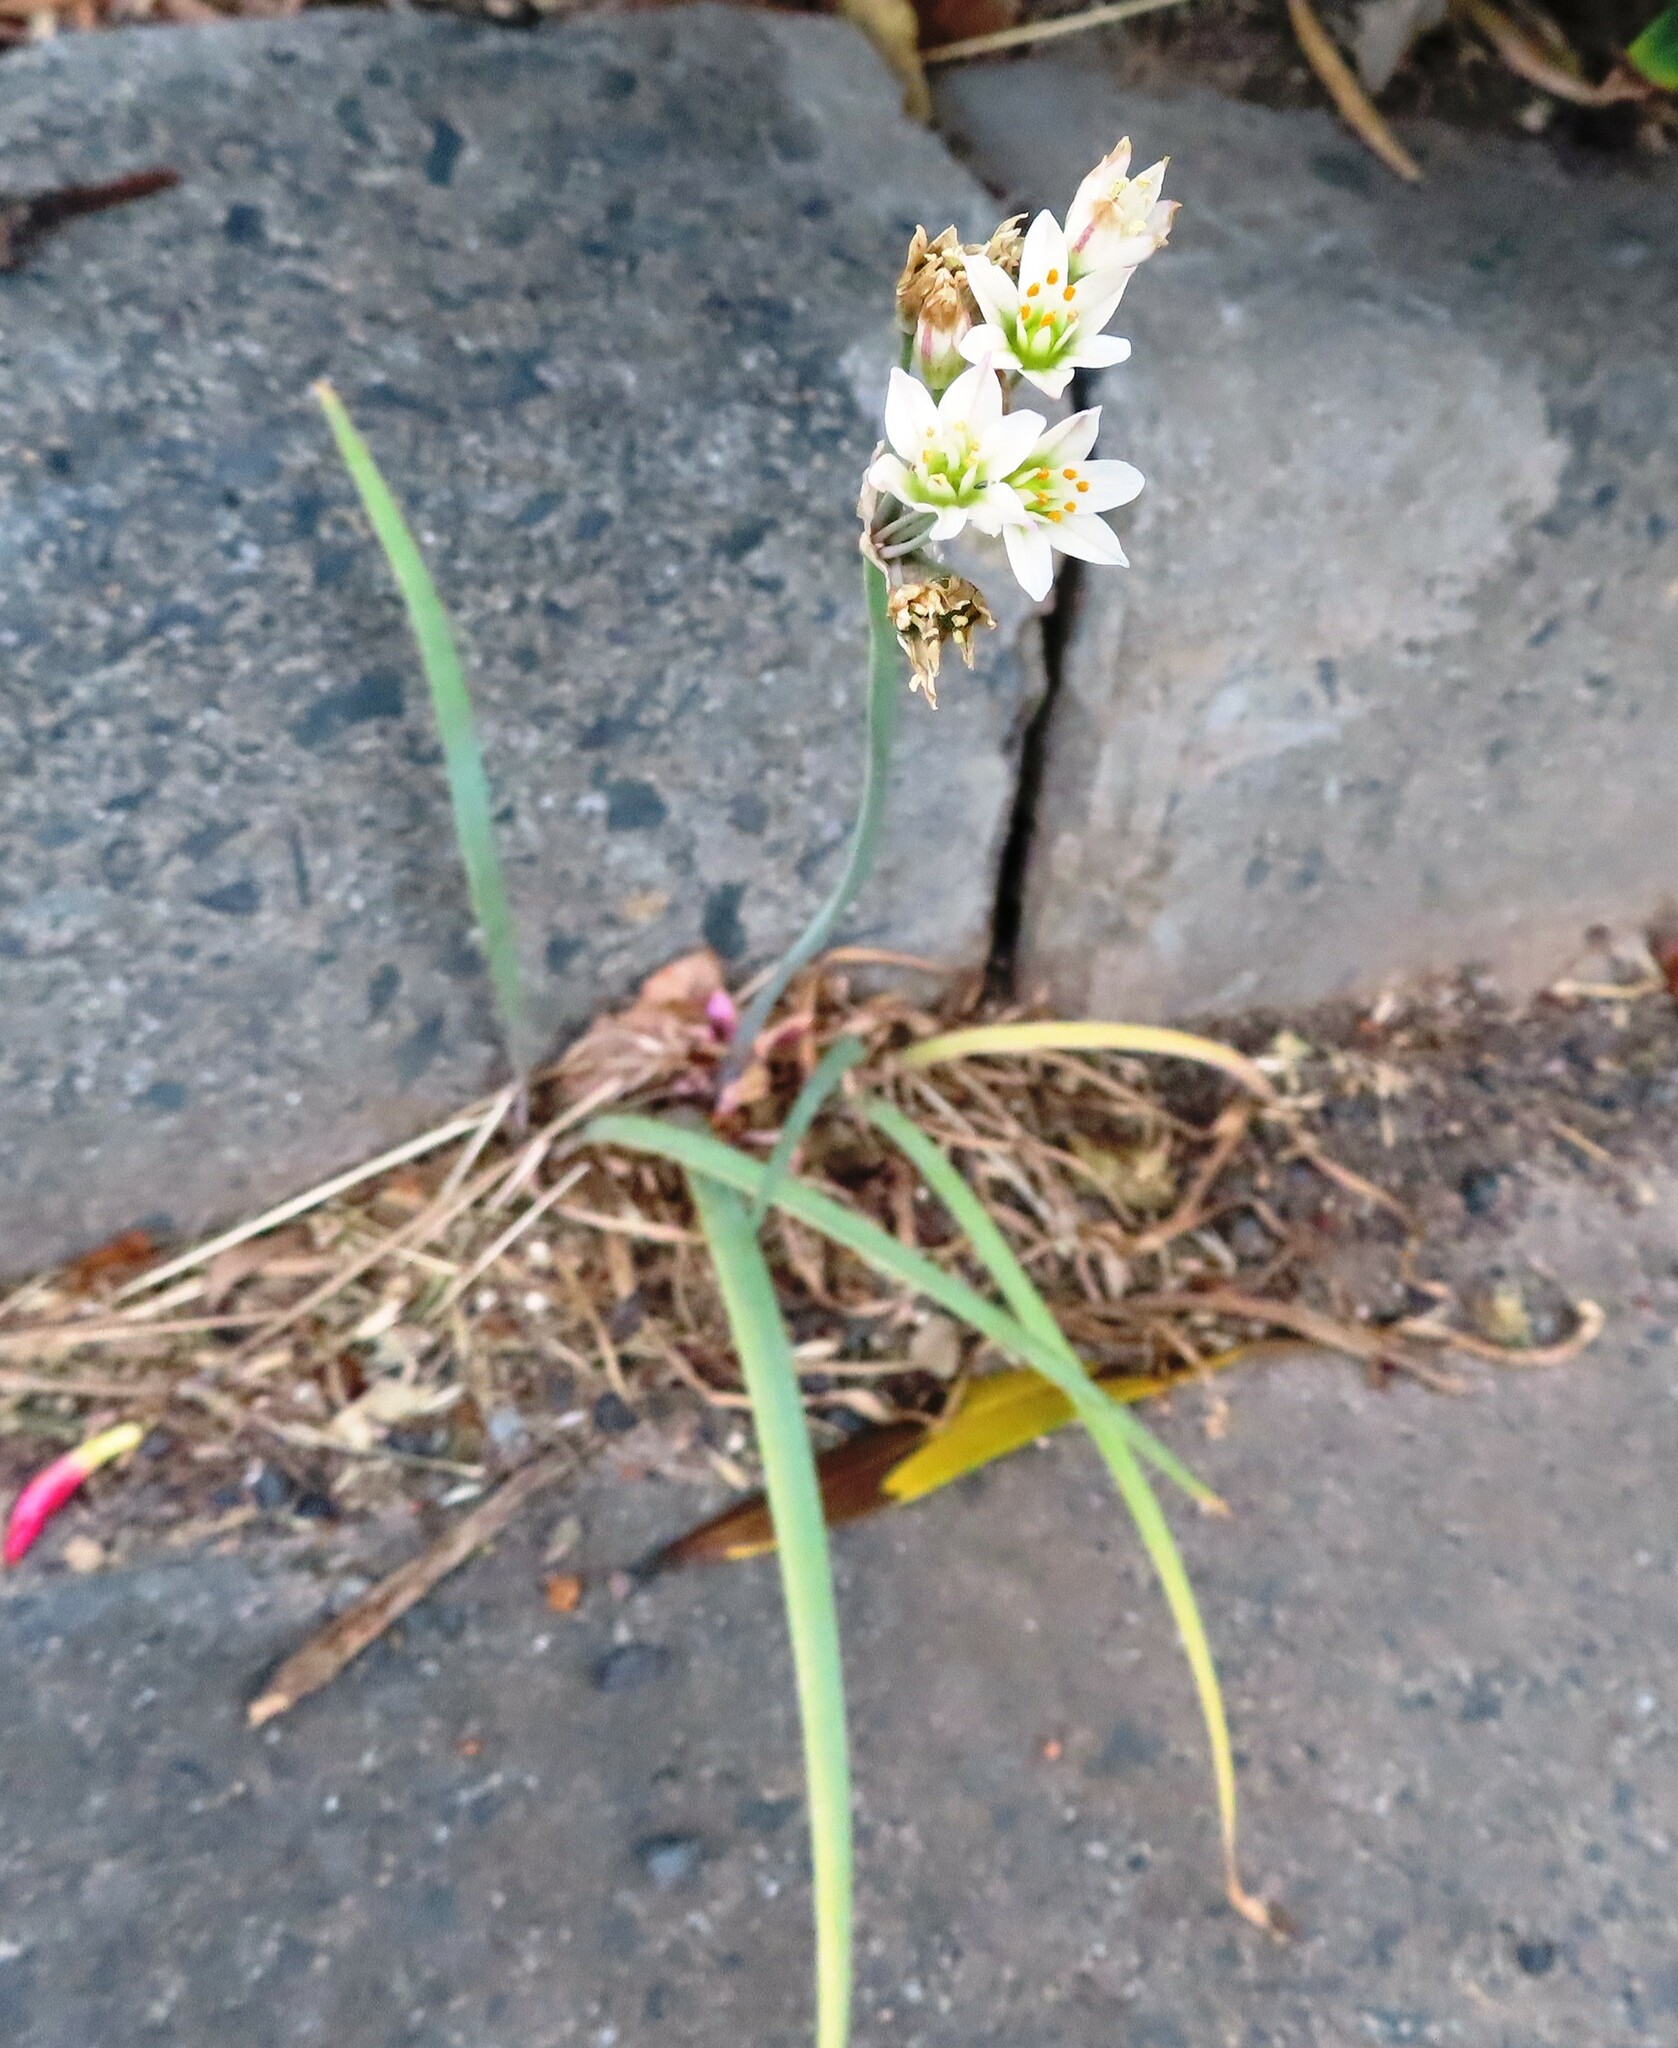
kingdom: Plantae
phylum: Tracheophyta
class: Liliopsida
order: Asparagales
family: Amaryllidaceae
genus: Nothoscordum
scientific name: Nothoscordum gracile
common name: Slender false garlic
